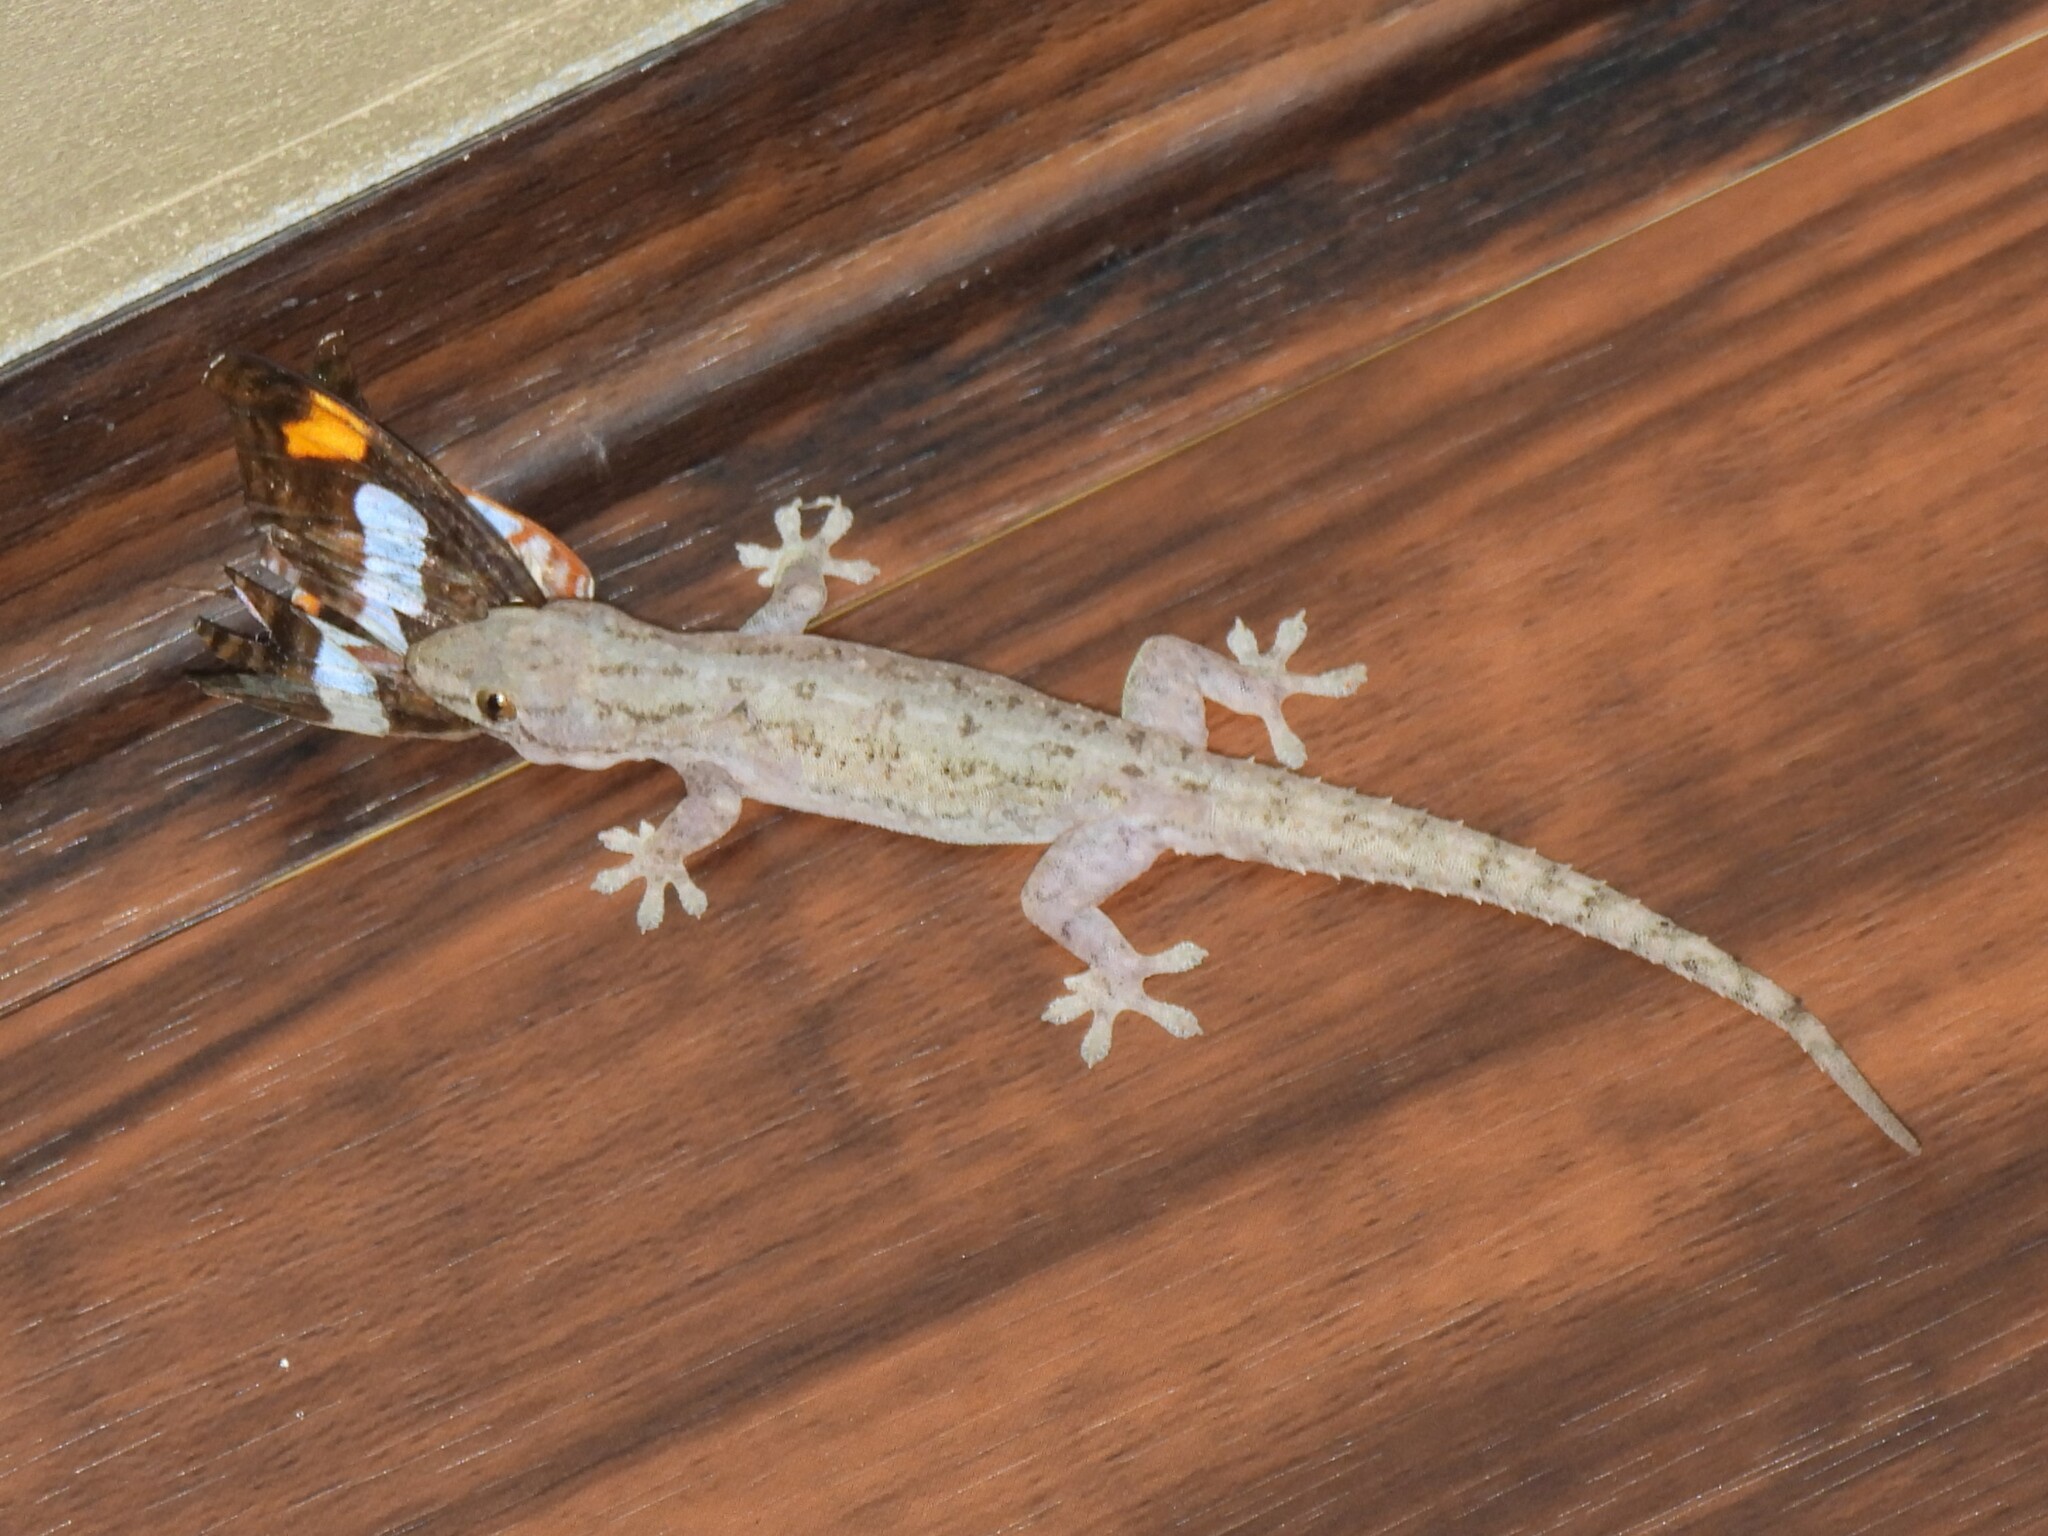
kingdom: Animalia
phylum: Chordata
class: Squamata
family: Gekkonidae
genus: Hemidactylus
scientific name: Hemidactylus frenatus
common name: Common house gecko
